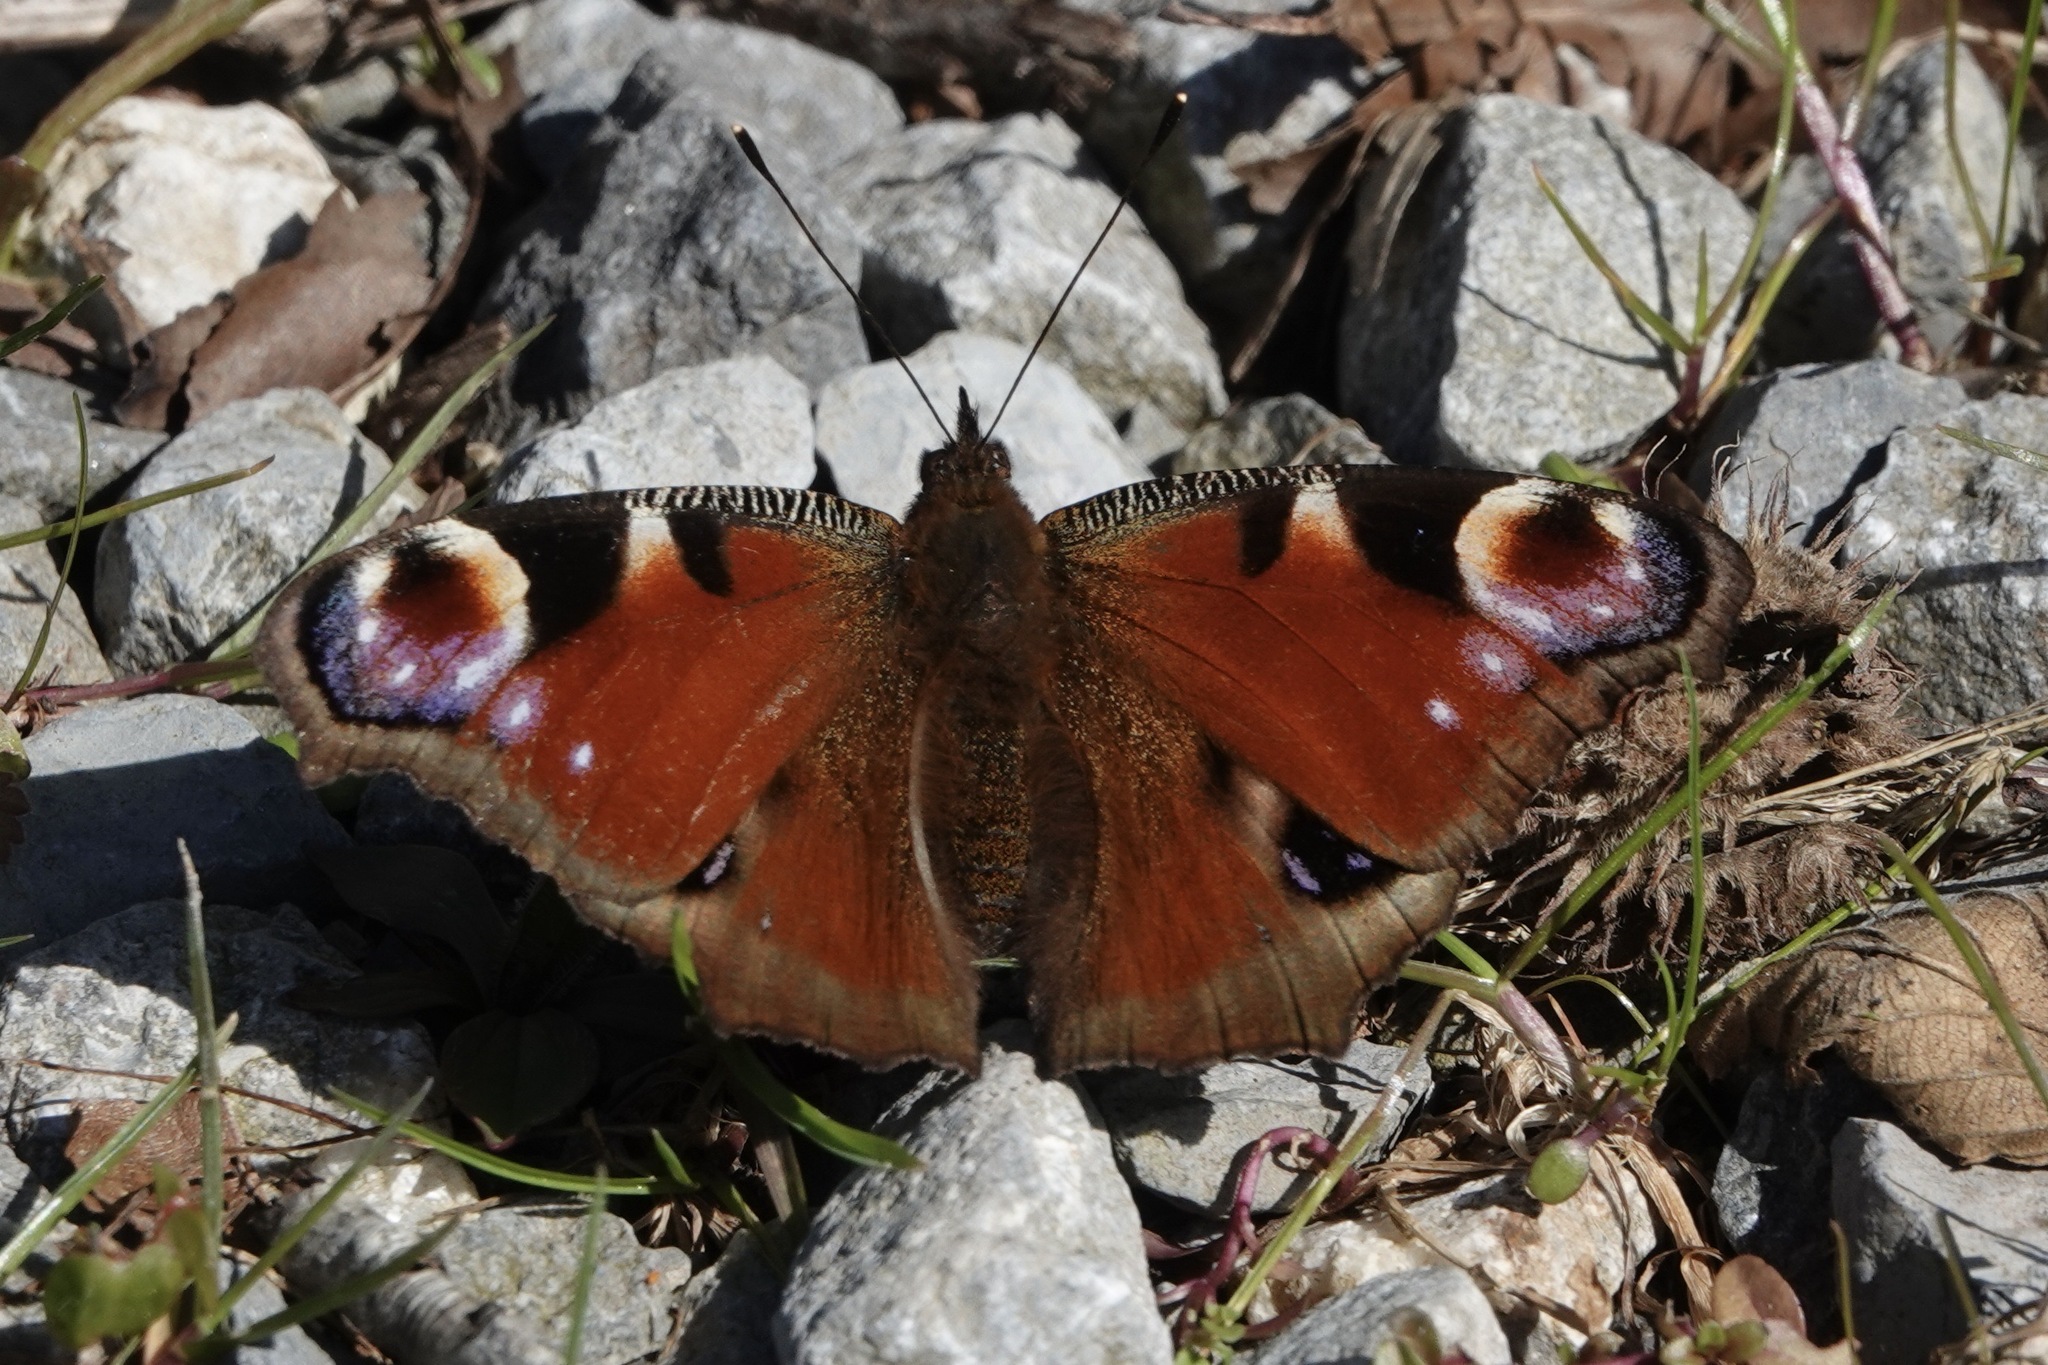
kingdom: Animalia
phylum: Arthropoda
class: Insecta
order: Lepidoptera
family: Nymphalidae
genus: Aglais
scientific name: Aglais io
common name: Peacock
